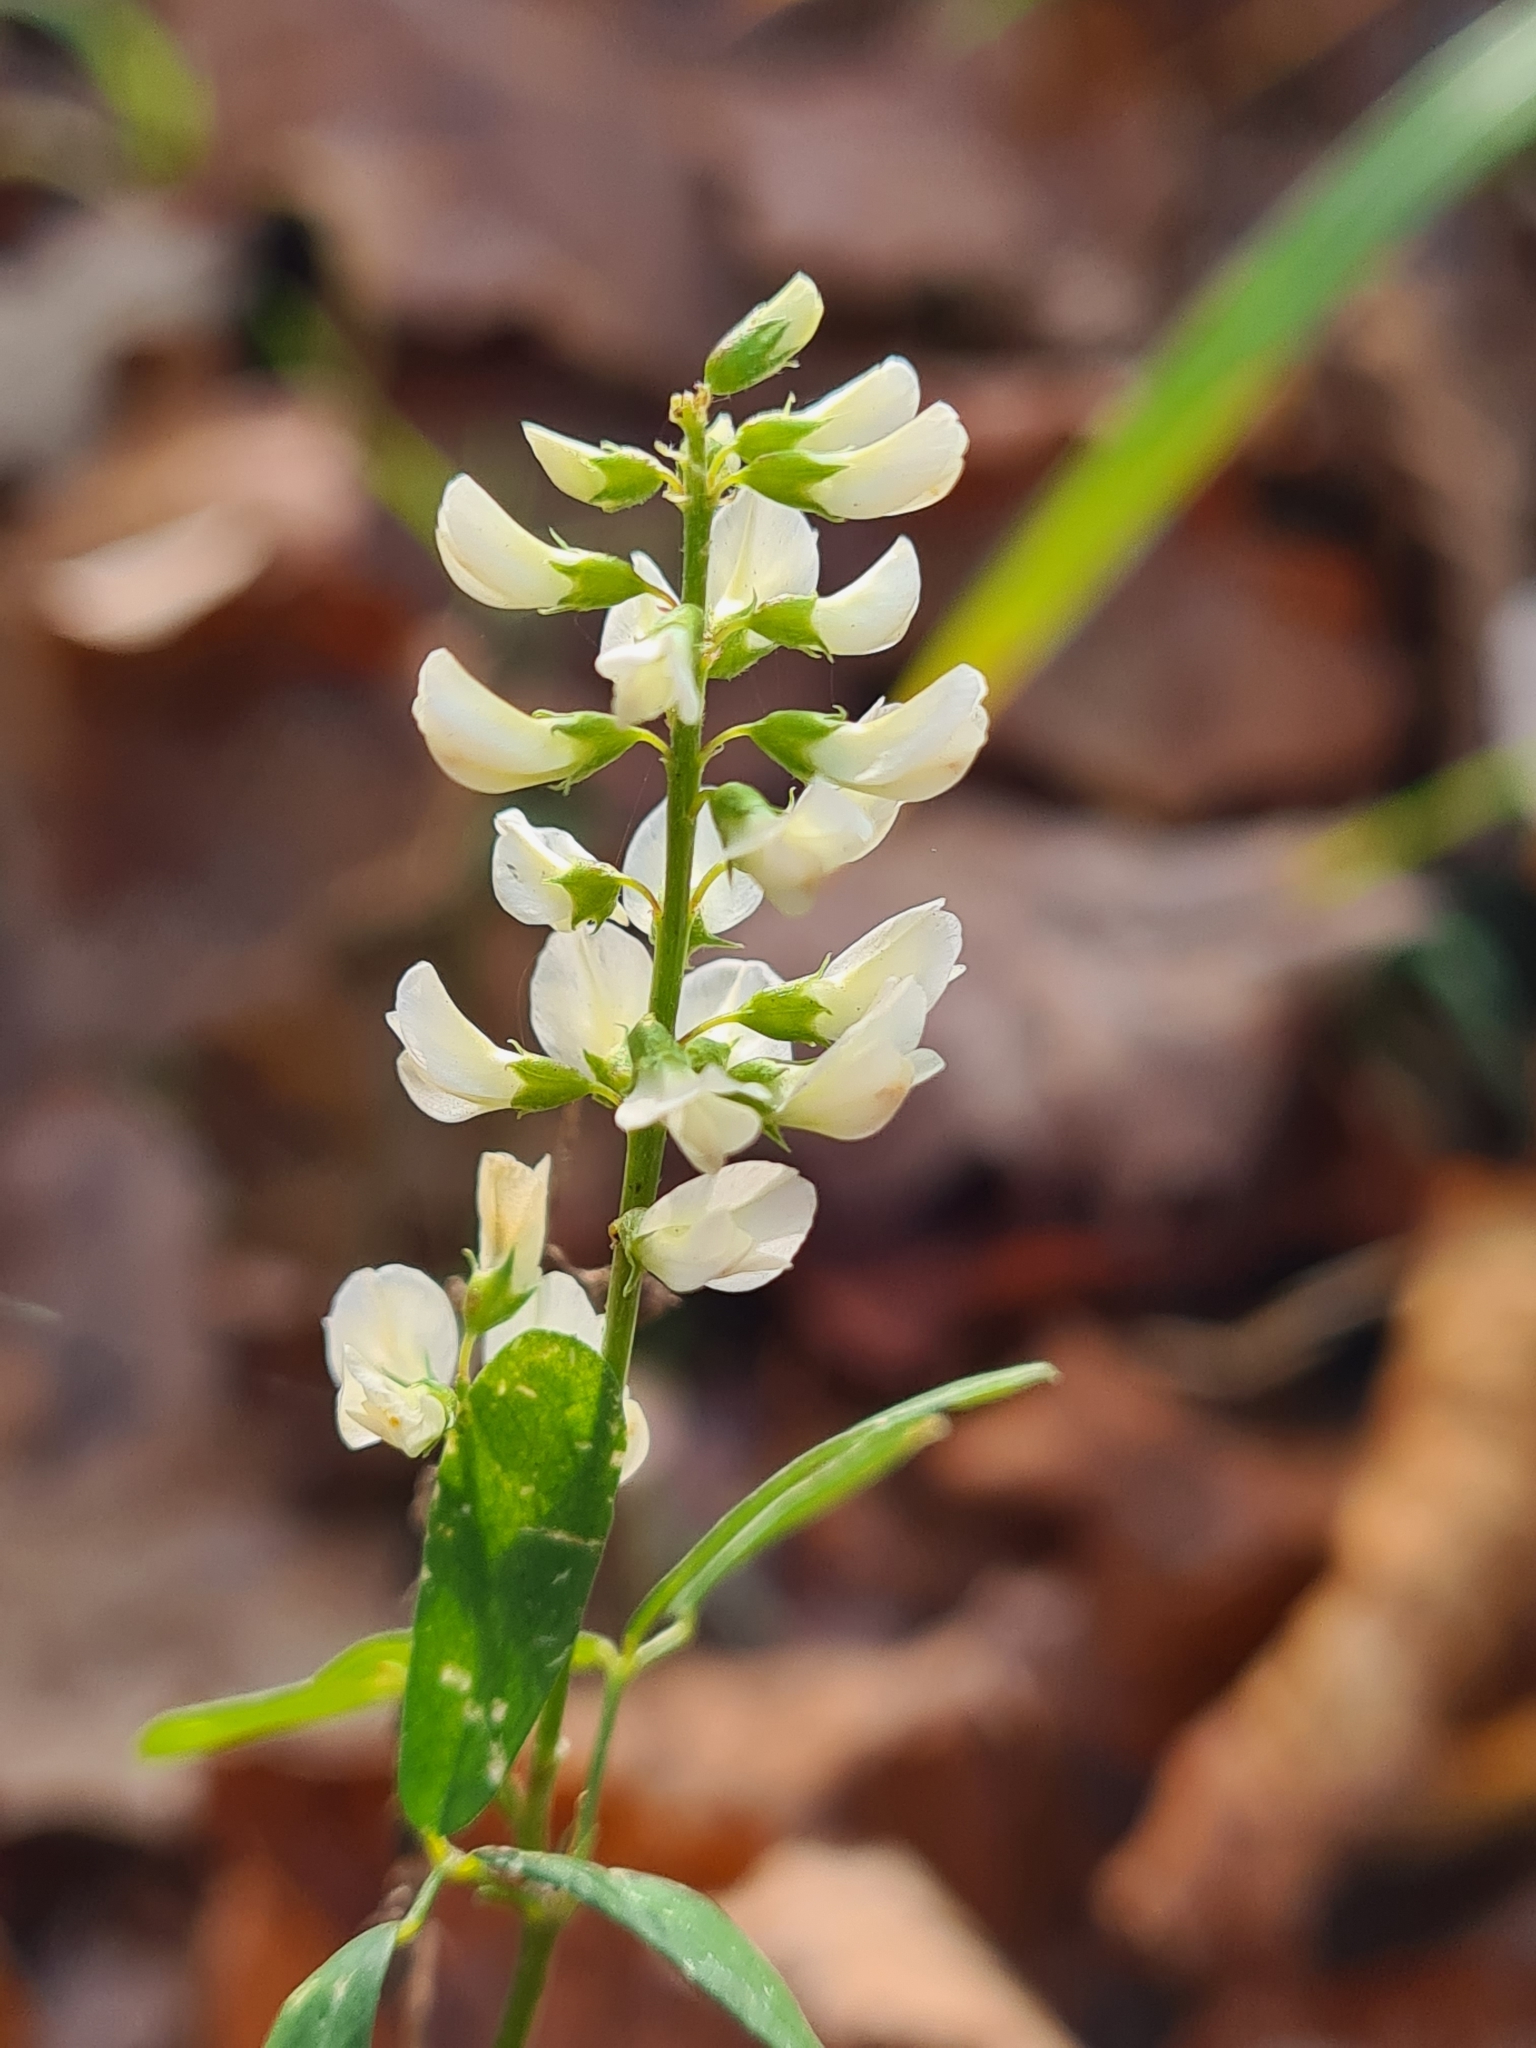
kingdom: Plantae
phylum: Tracheophyta
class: Magnoliopsida
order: Fabales
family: Fabaceae
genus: Melilotus
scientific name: Melilotus albus
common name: White melilot
